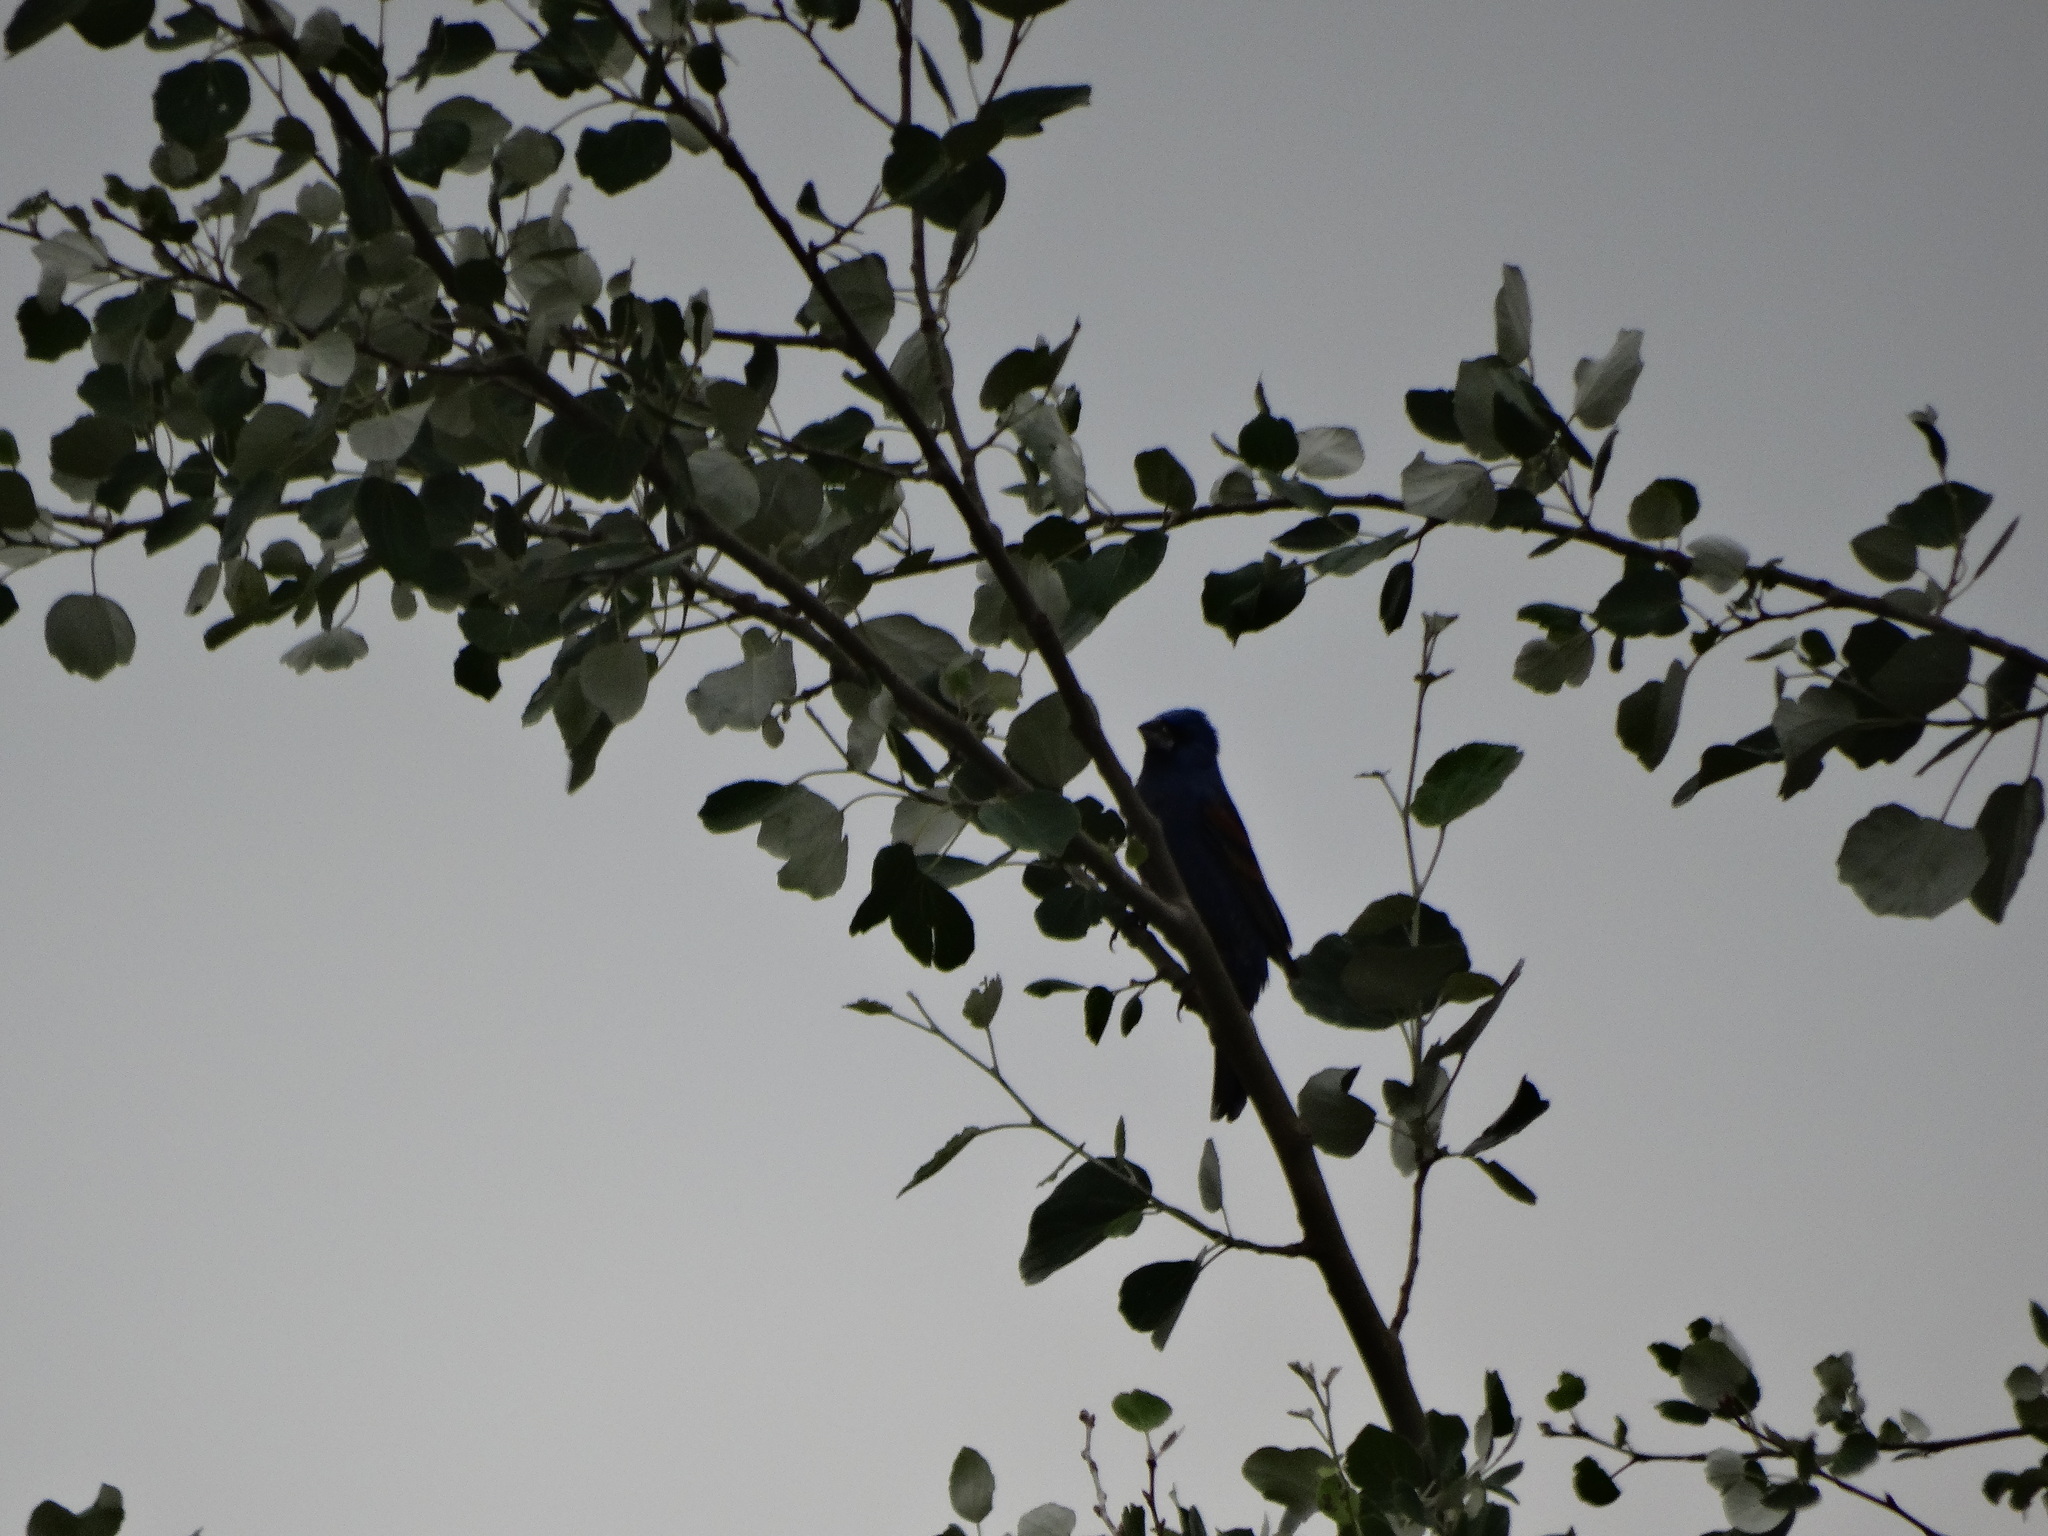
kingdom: Animalia
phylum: Chordata
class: Aves
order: Passeriformes
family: Cardinalidae
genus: Passerina
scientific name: Passerina caerulea
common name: Blue grosbeak
